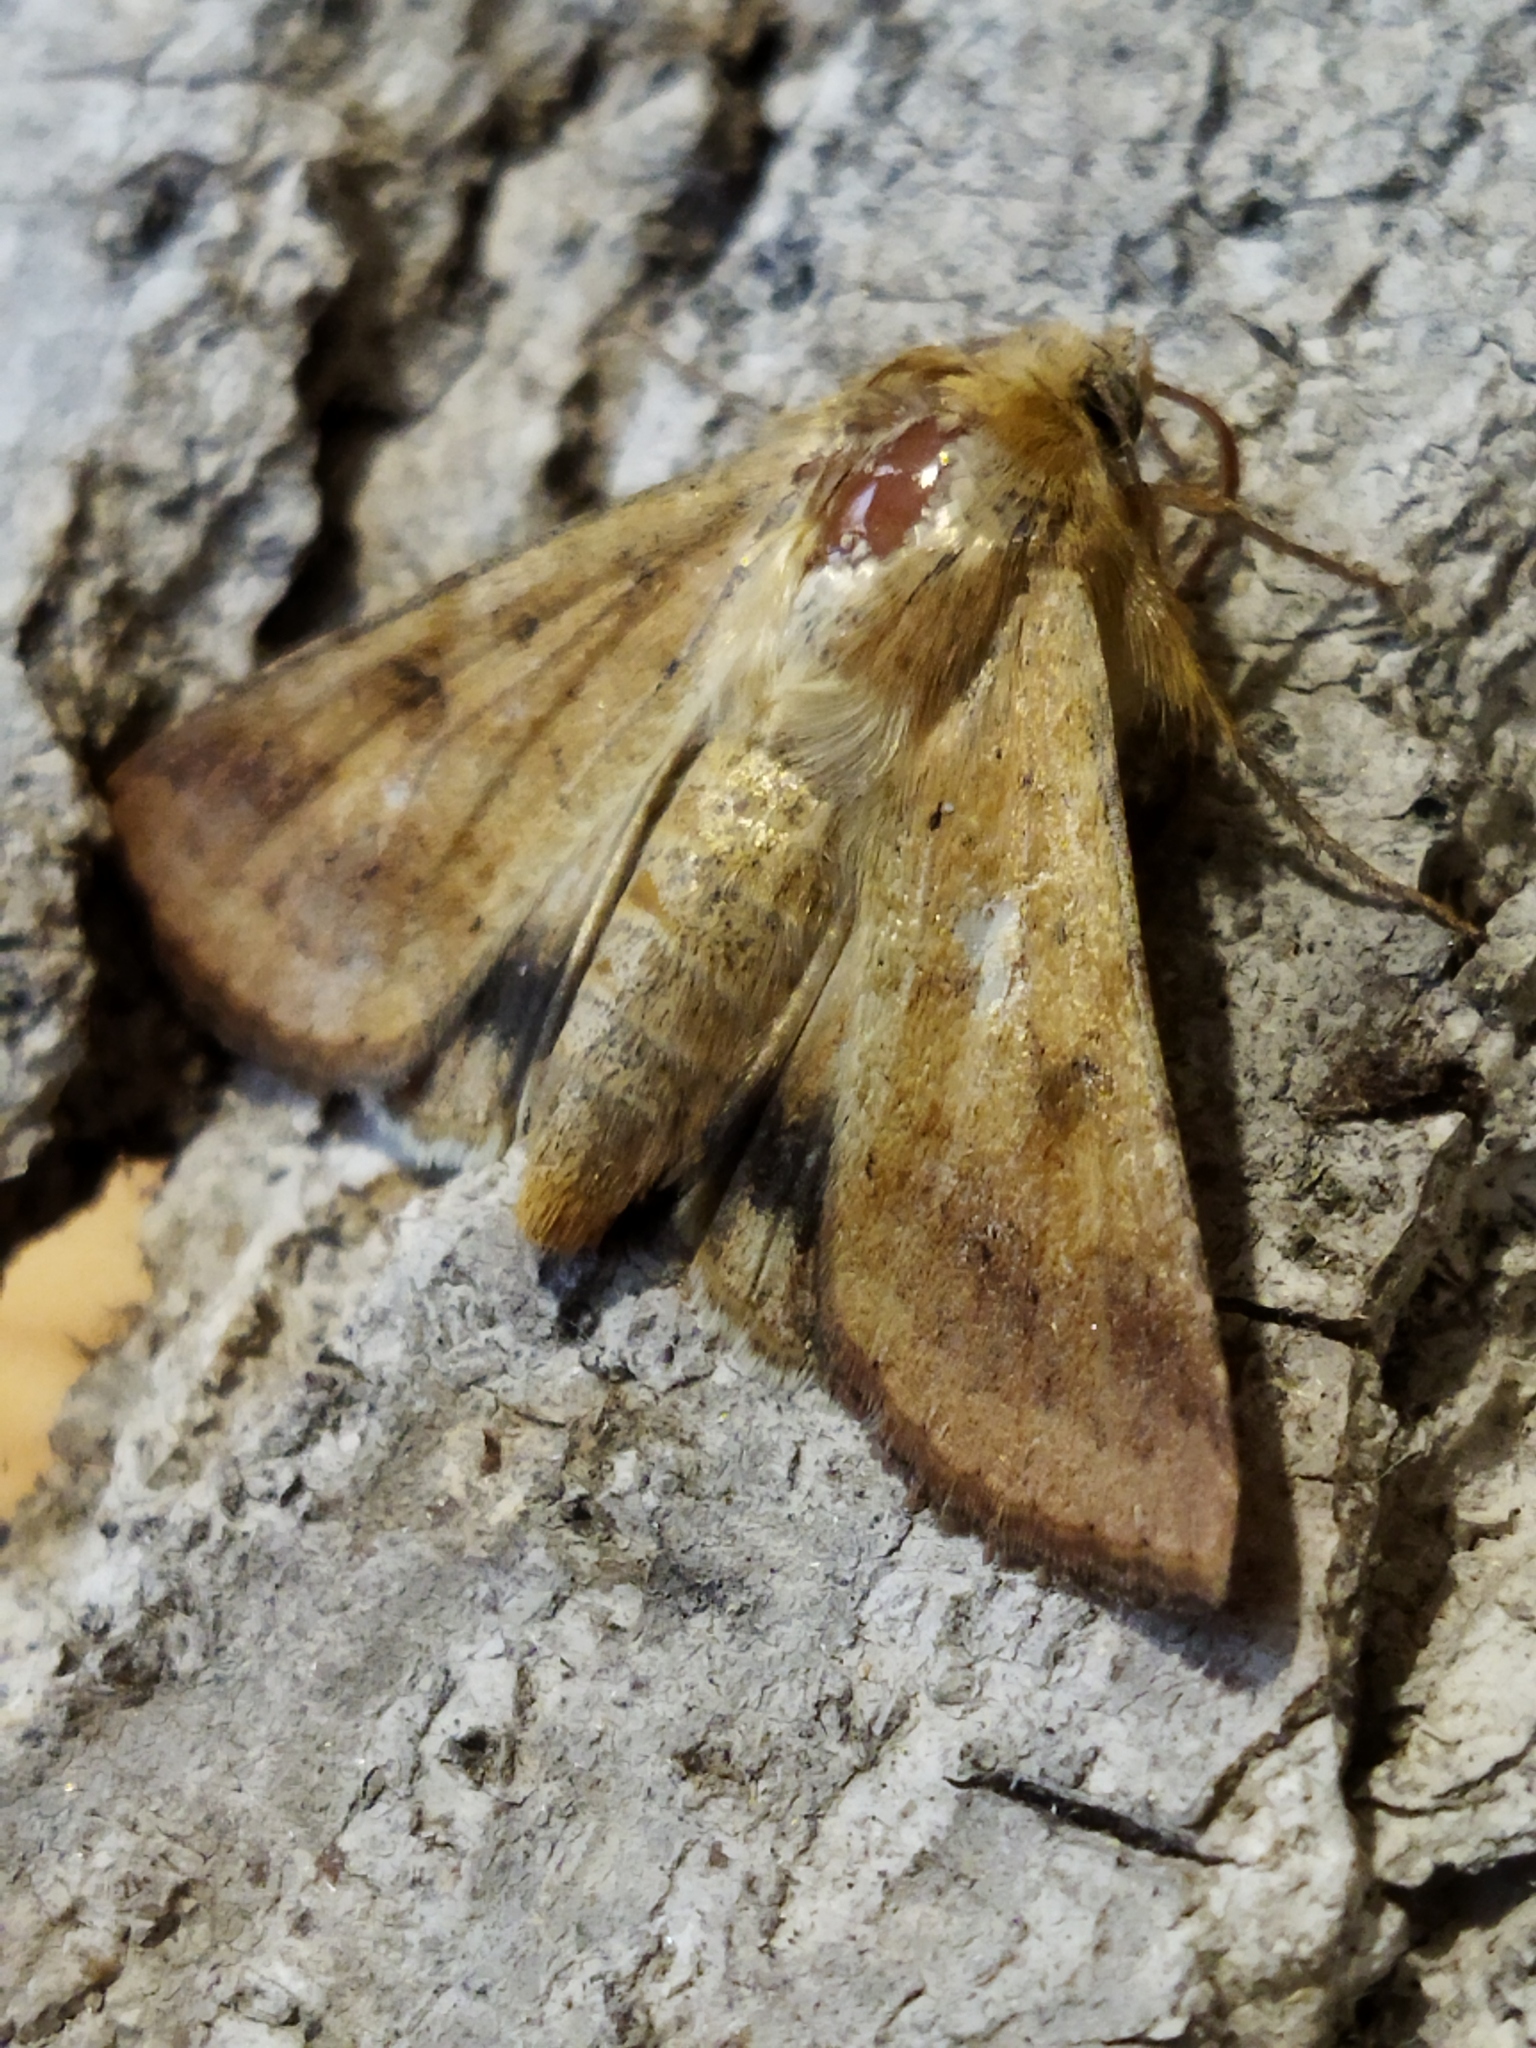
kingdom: Animalia
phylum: Arthropoda
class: Insecta
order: Lepidoptera
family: Noctuidae
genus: Helicoverpa
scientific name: Helicoverpa armigera
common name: Cotton bollworm
